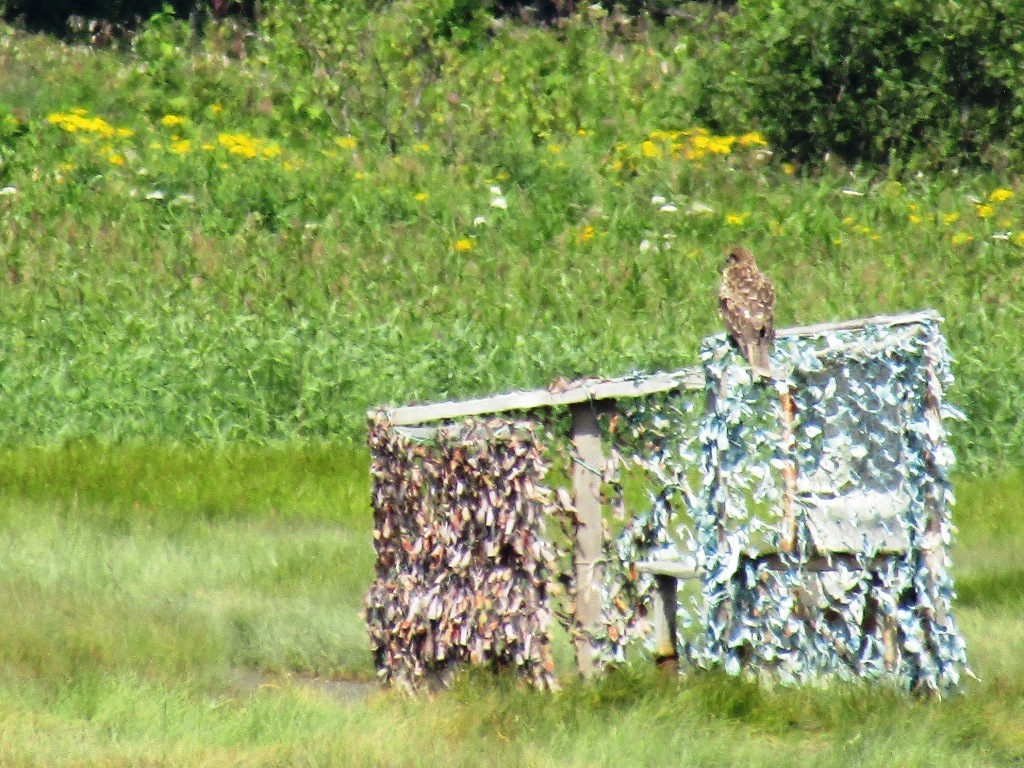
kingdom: Animalia
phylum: Chordata
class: Aves
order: Accipitriformes
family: Accipitridae
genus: Milvus
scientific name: Milvus migrans
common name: Black kite
